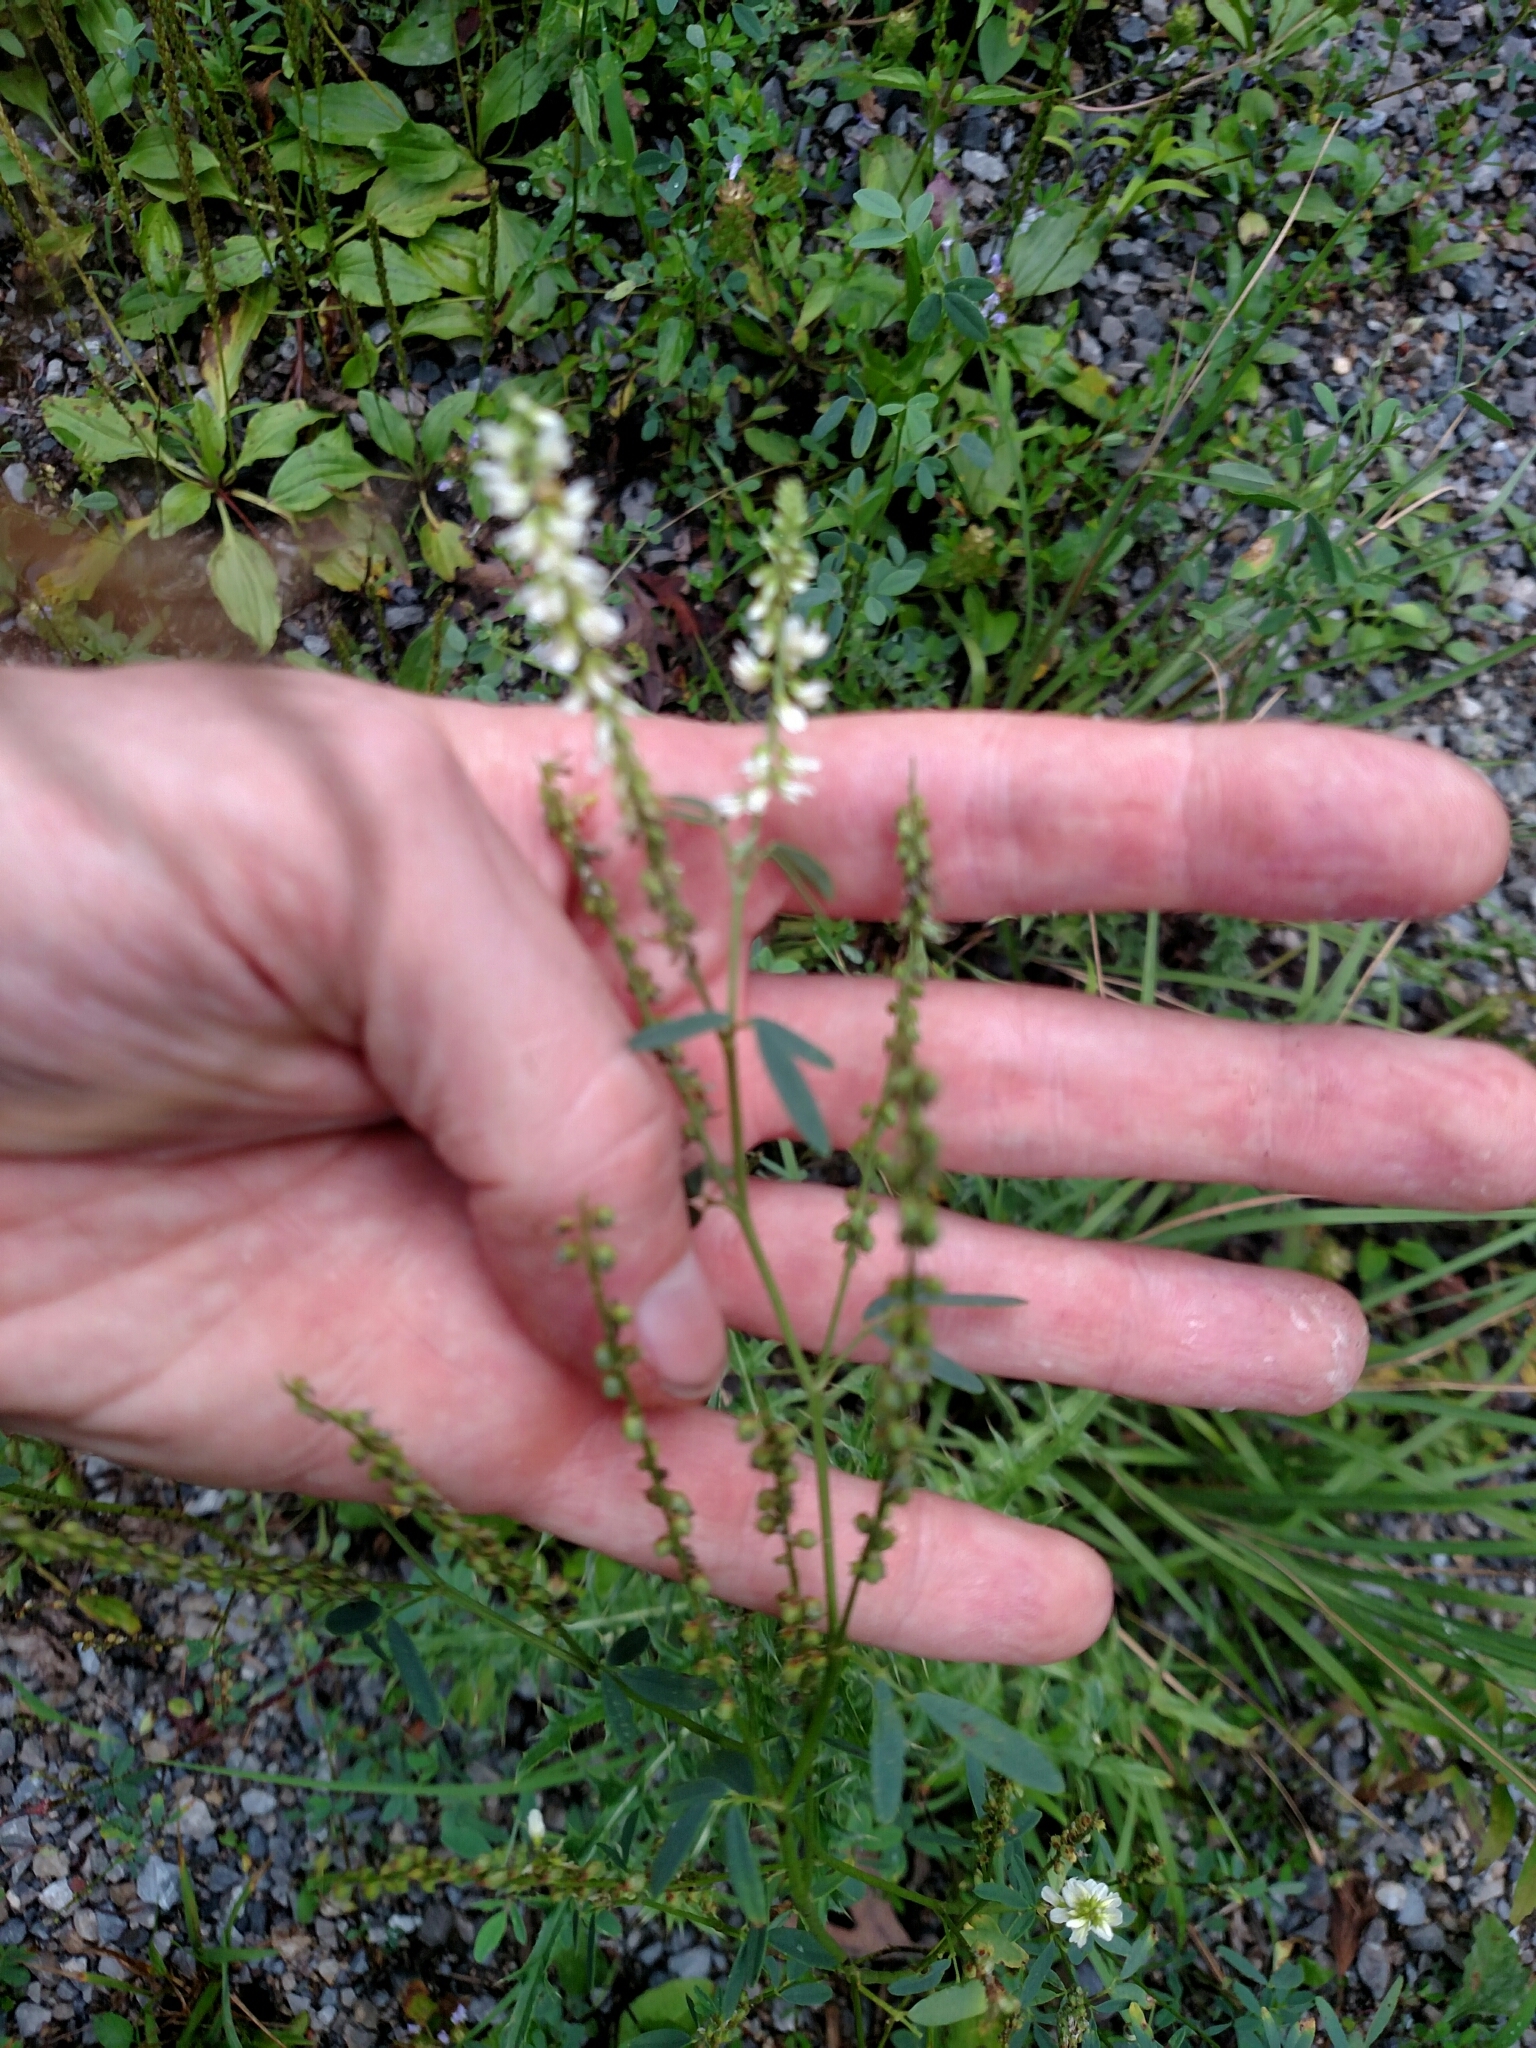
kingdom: Plantae
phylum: Tracheophyta
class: Magnoliopsida
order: Fabales
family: Fabaceae
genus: Melilotus
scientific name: Melilotus albus
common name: White melilot
